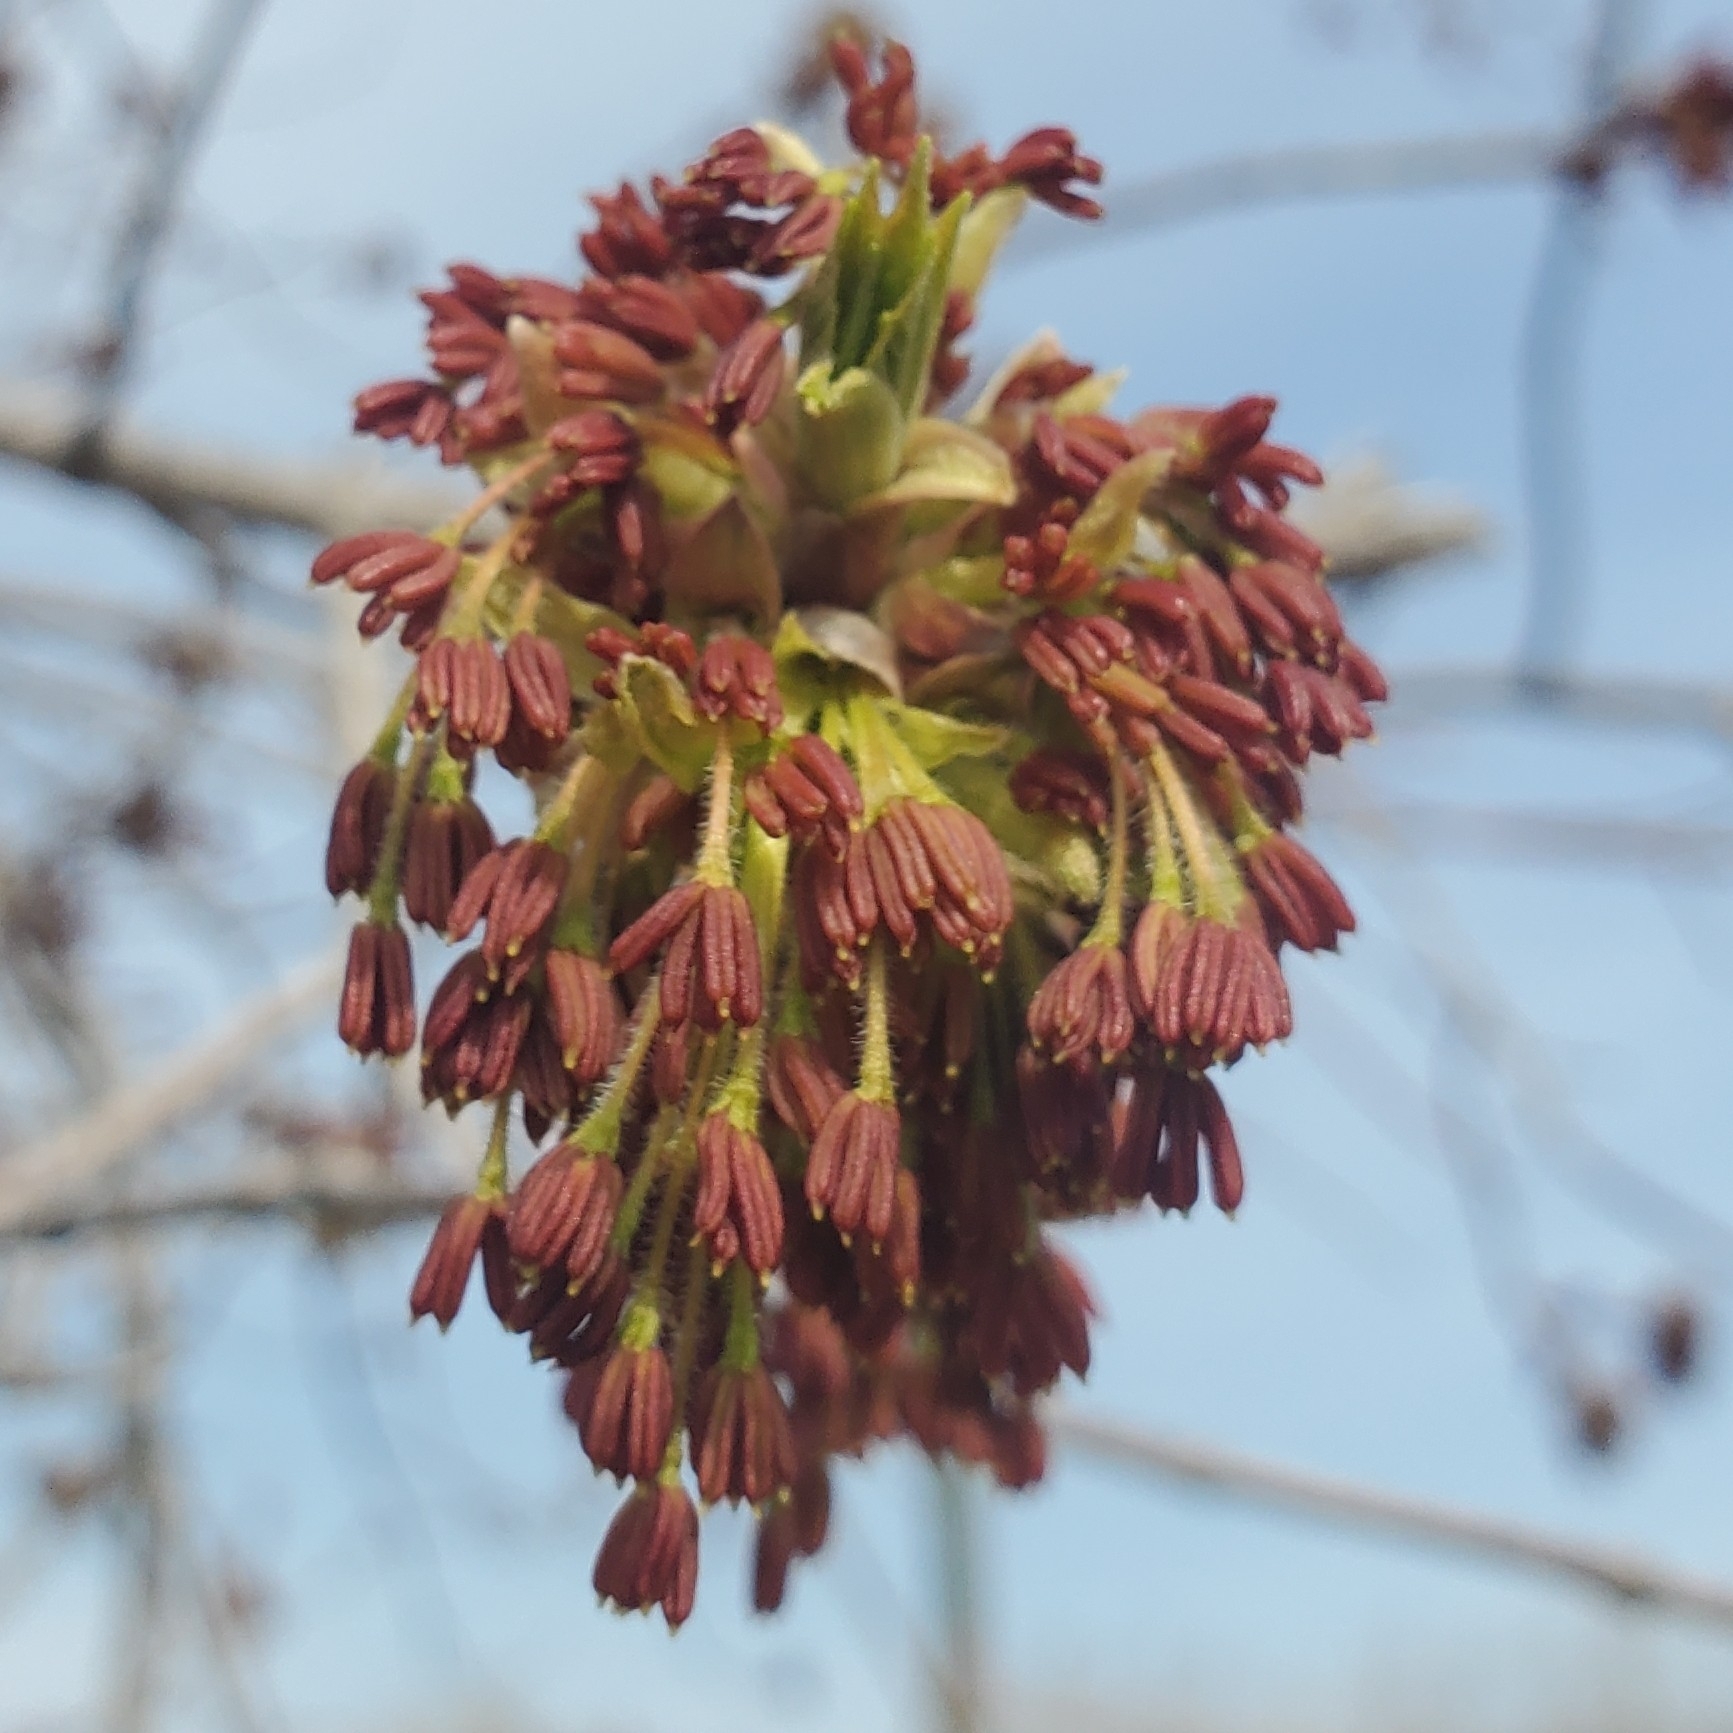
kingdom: Plantae
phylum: Tracheophyta
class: Magnoliopsida
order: Sapindales
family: Sapindaceae
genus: Acer
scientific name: Acer negundo
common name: Ashleaf maple
